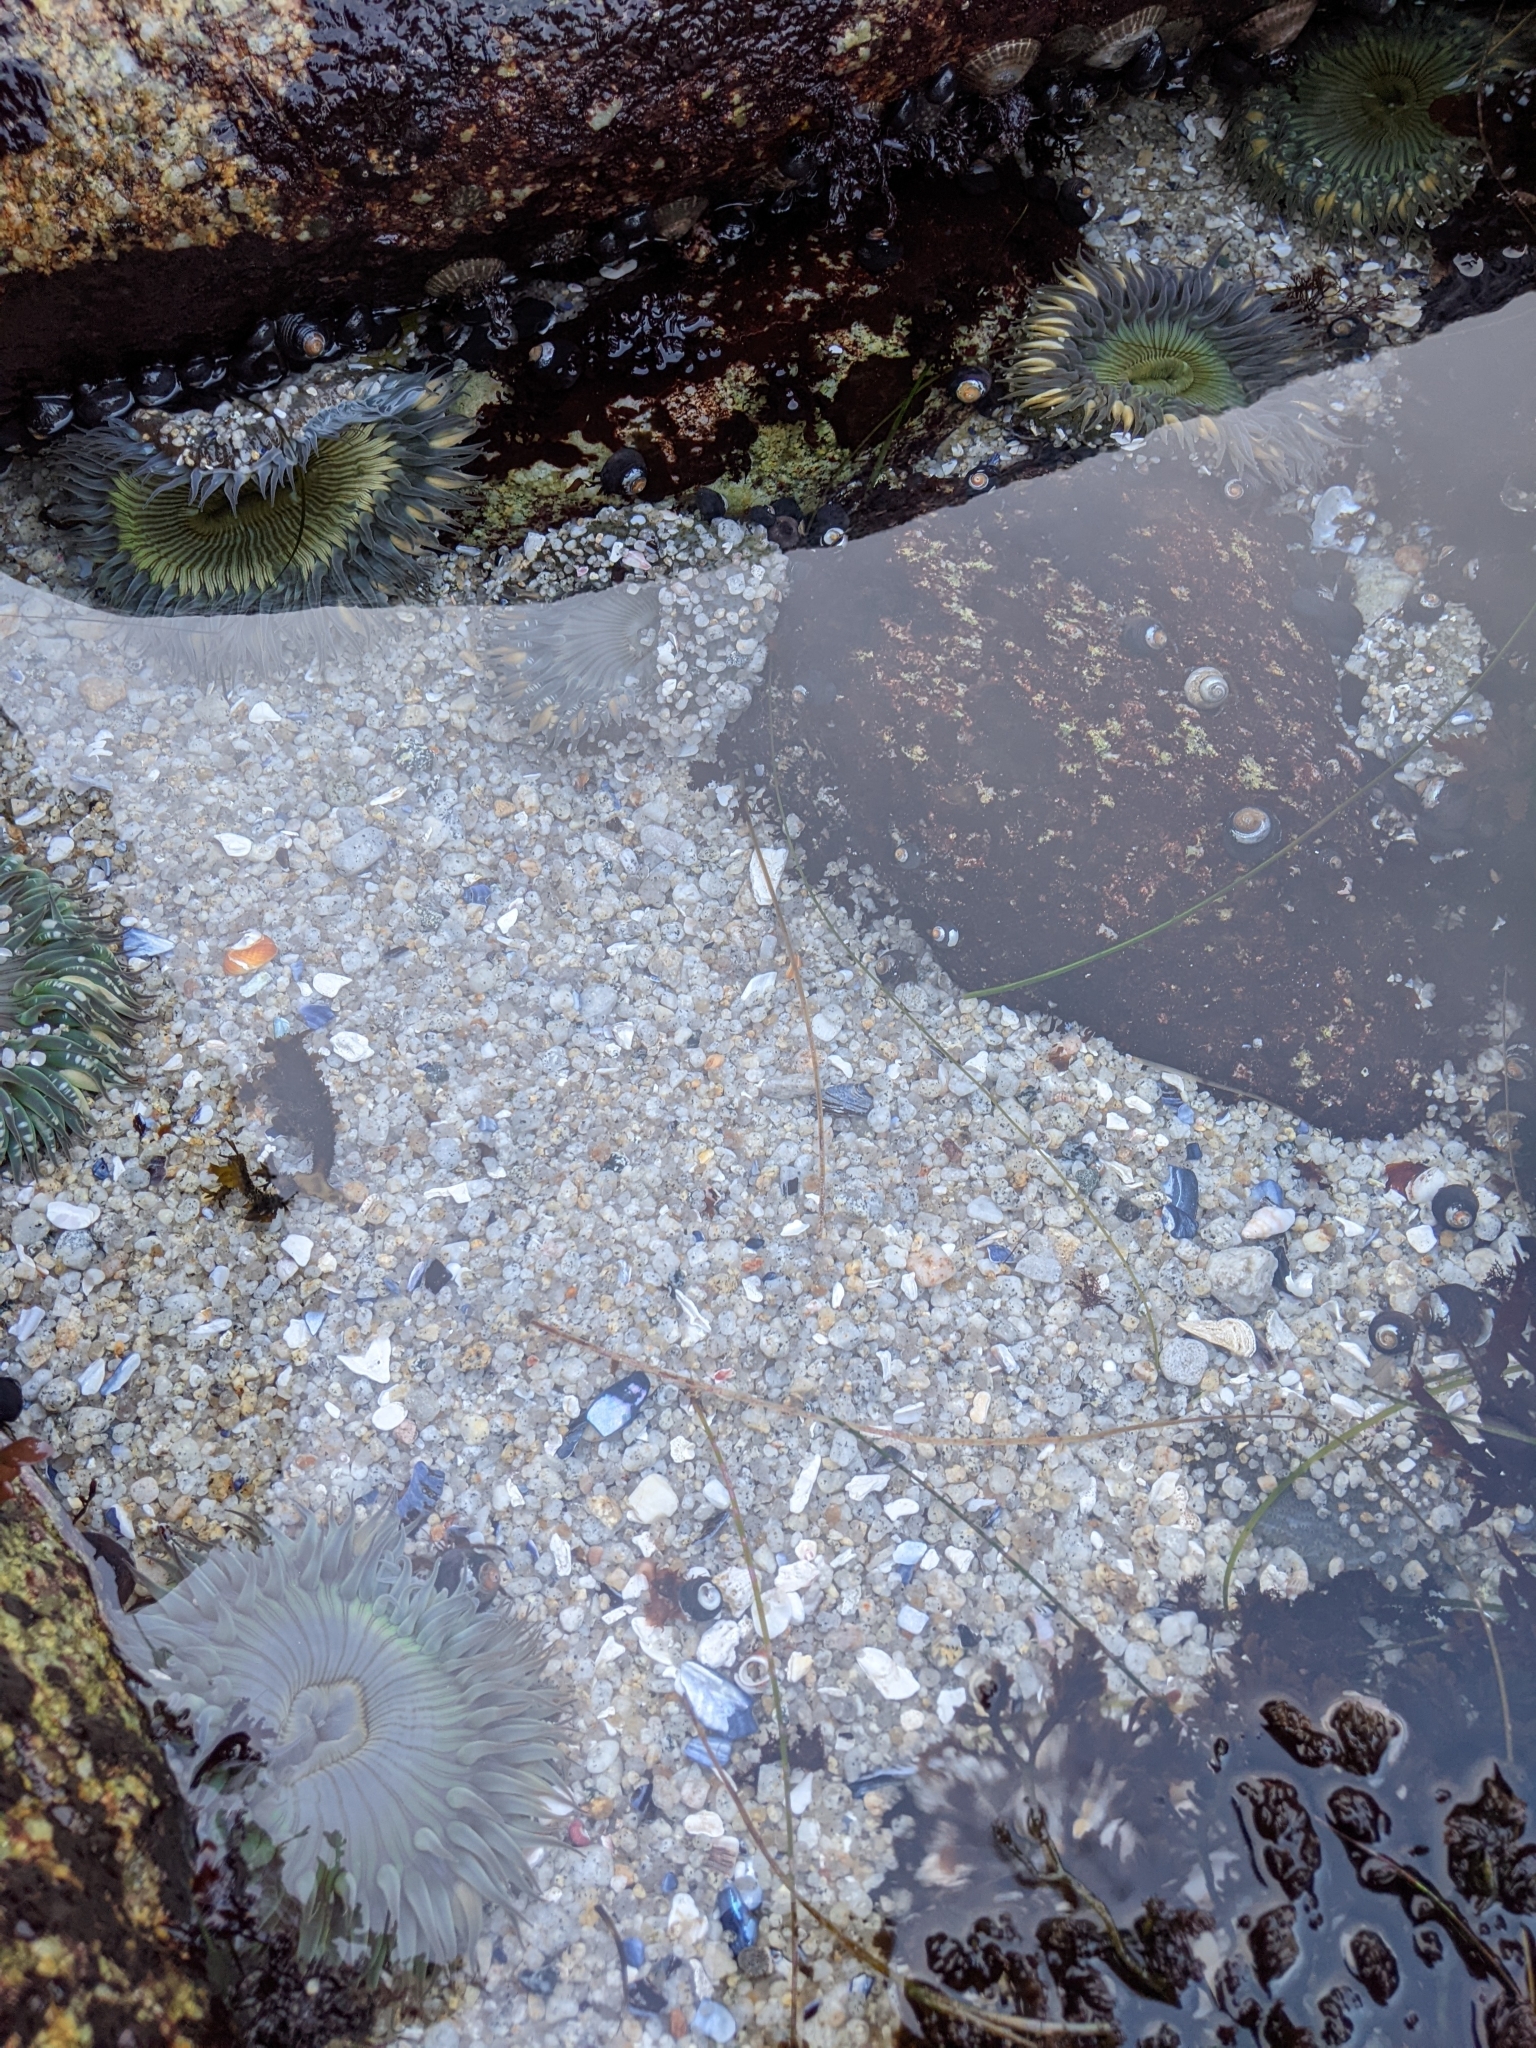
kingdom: Animalia
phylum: Cnidaria
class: Anthozoa
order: Actiniaria
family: Actiniidae
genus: Anthopleura
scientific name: Anthopleura sola
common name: Sun anemone
